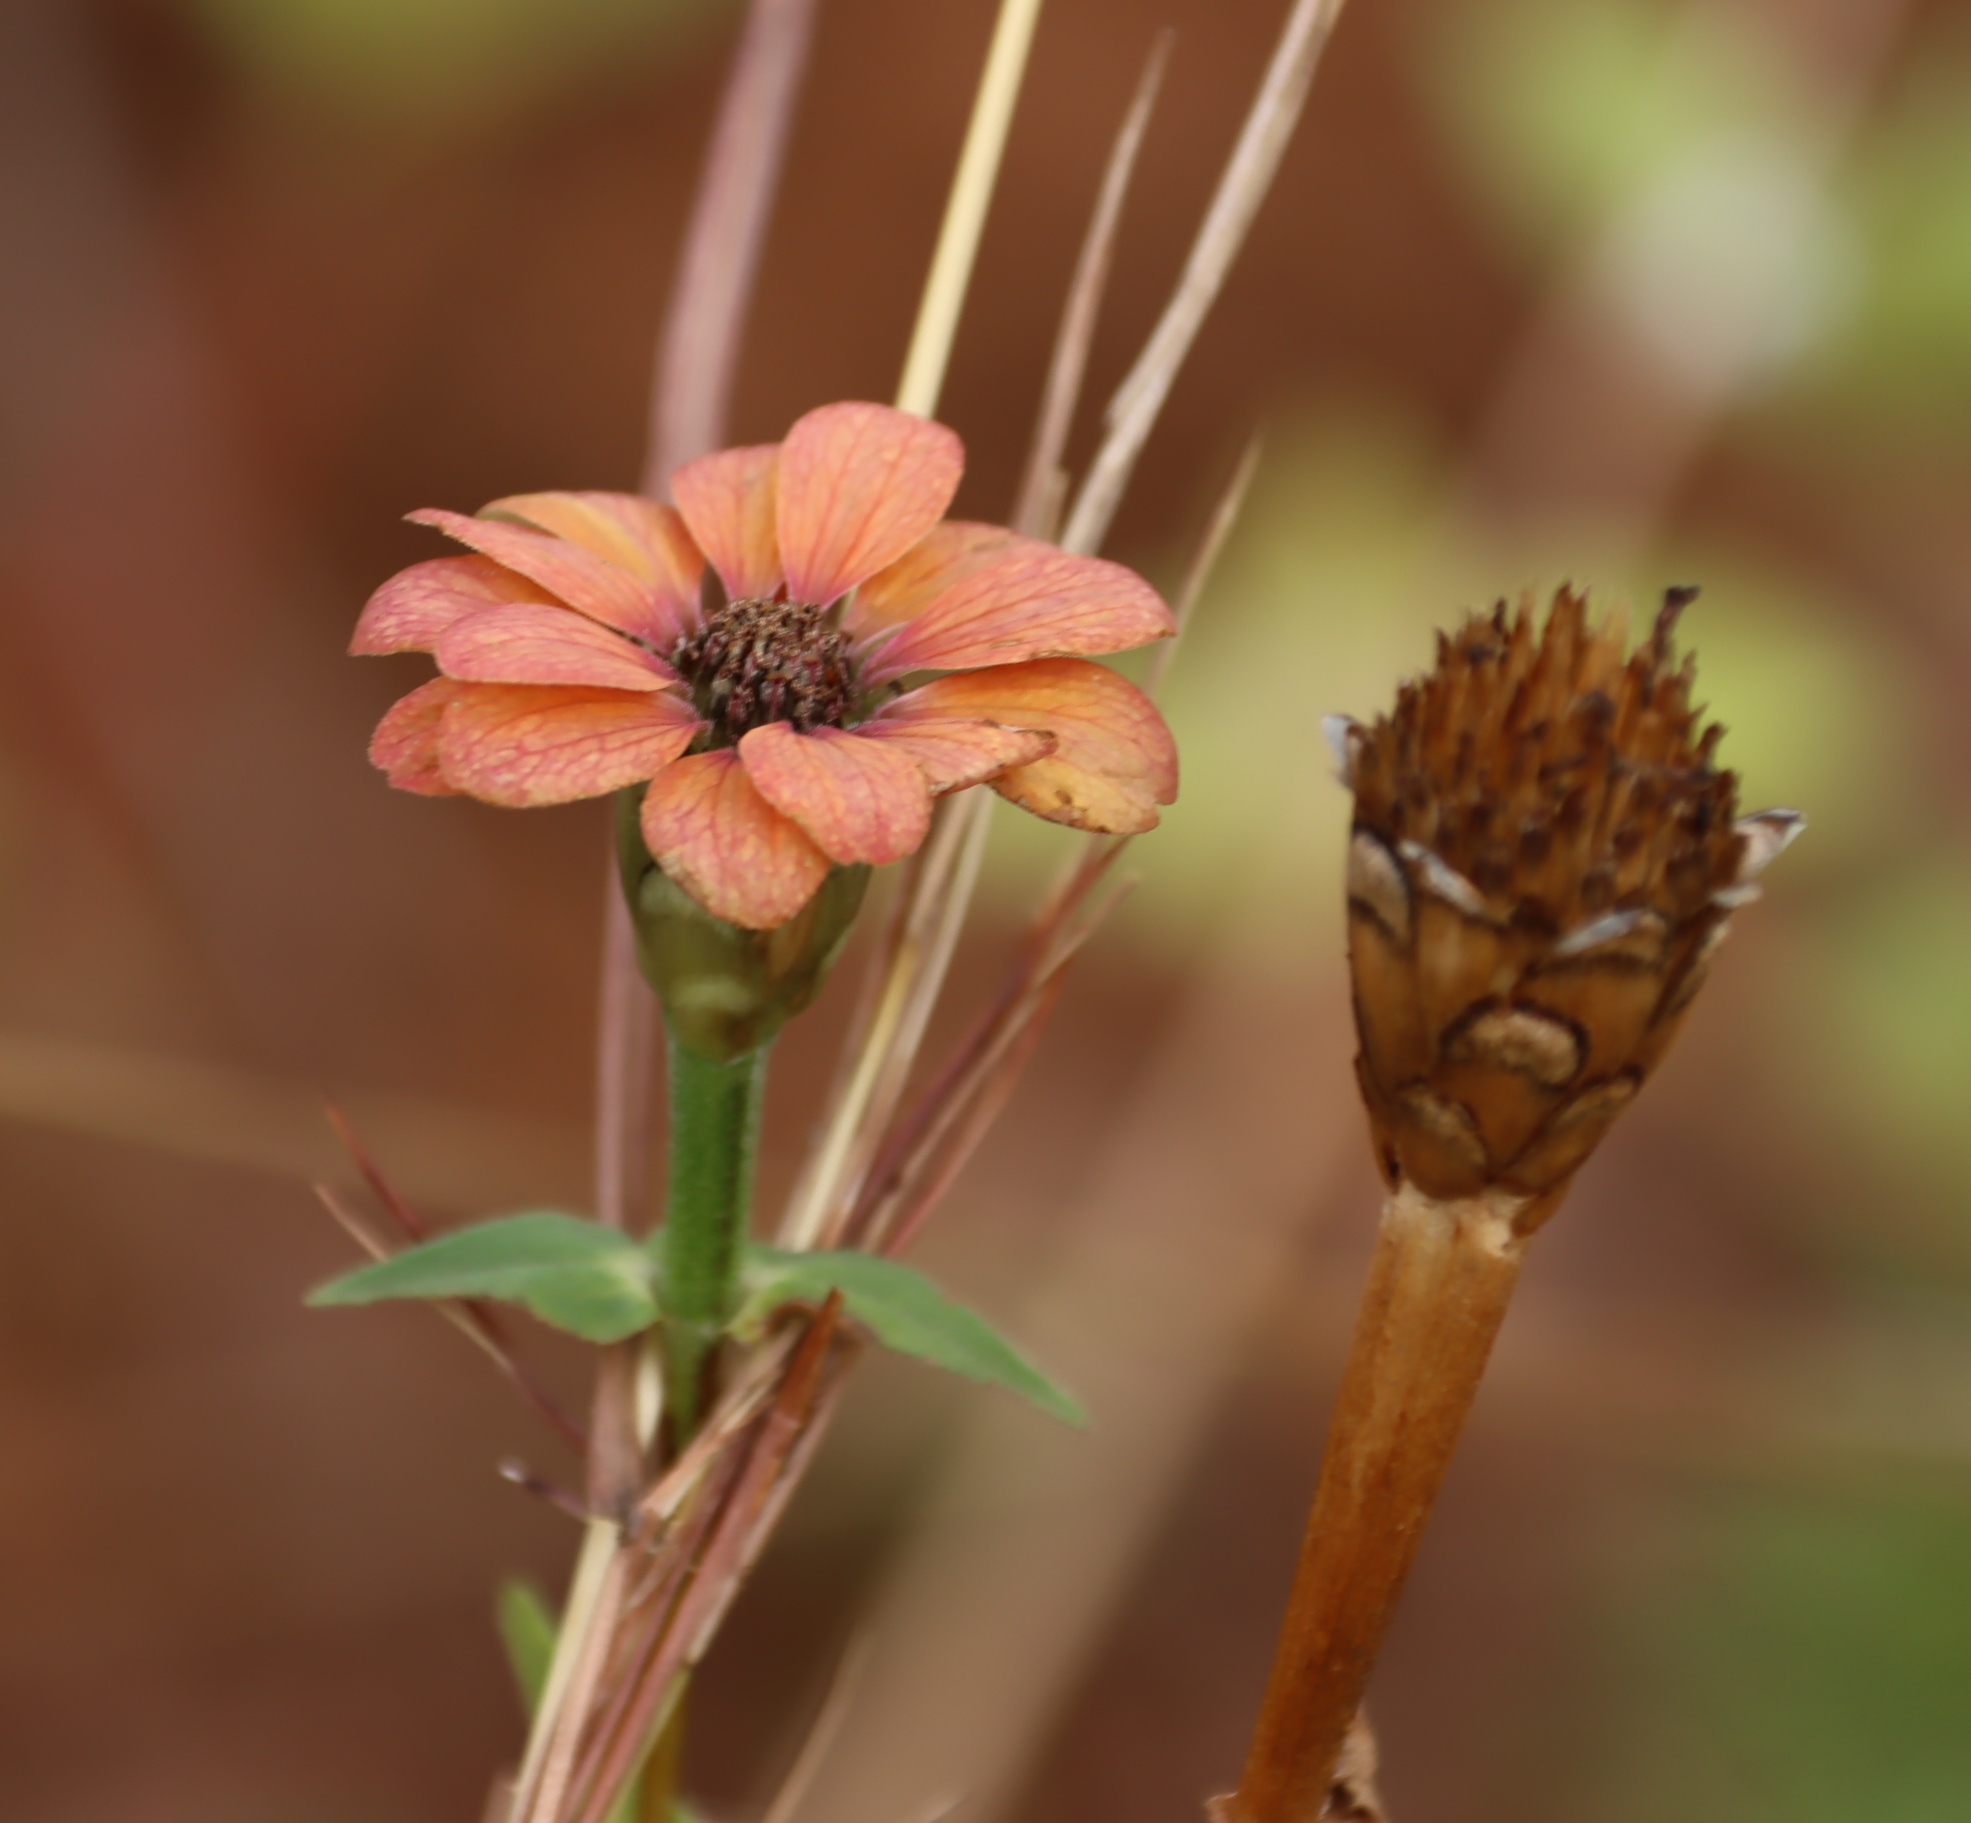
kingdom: Plantae
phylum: Tracheophyta
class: Magnoliopsida
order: Asterales
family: Asteraceae
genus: Zinnia
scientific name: Zinnia peruviana
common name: Peruvian zinnia
